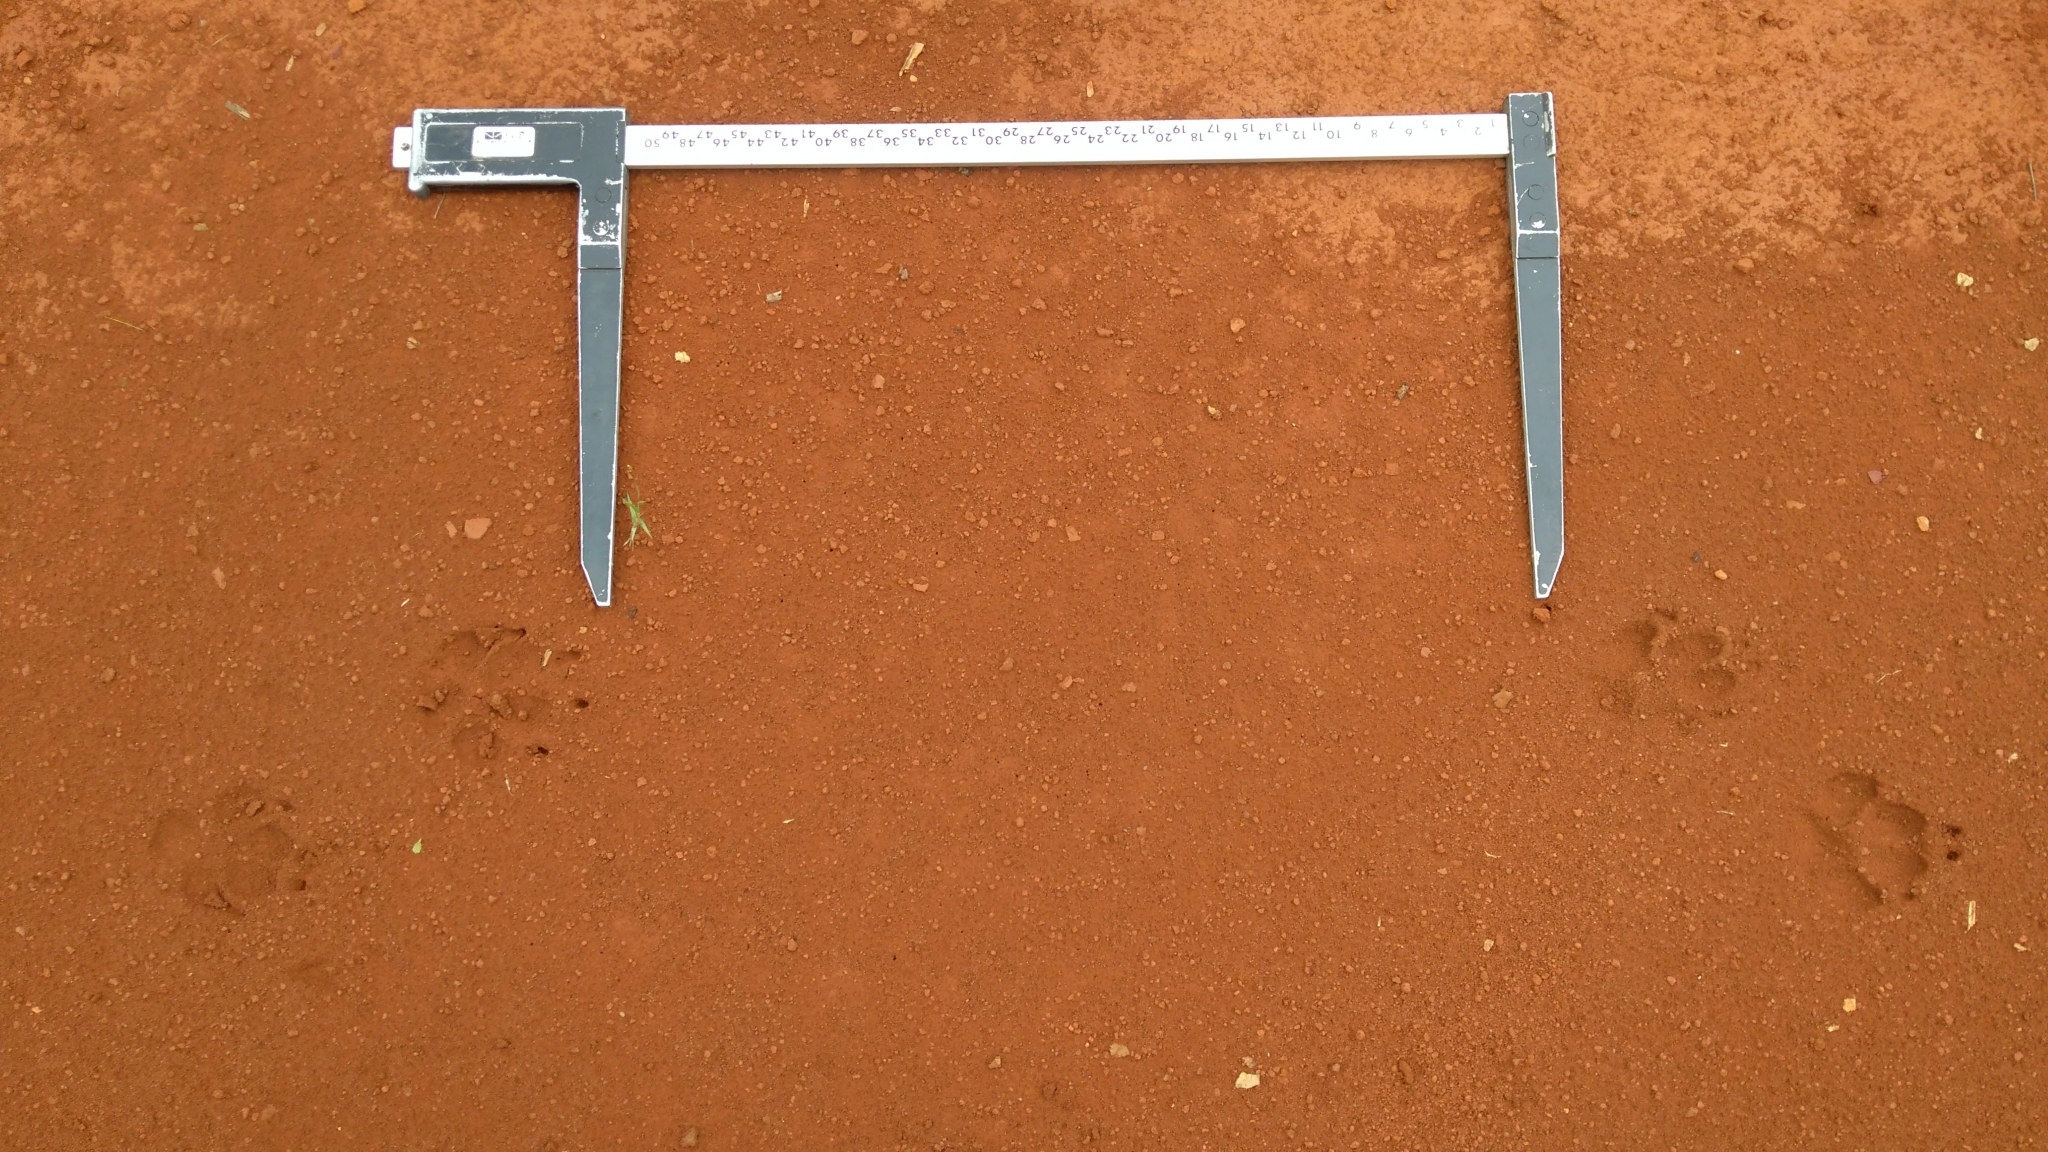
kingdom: Animalia
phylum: Chordata
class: Mammalia
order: Carnivora
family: Canidae
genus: Chrysocyon
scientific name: Chrysocyon brachyurus
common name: Maned wolf
